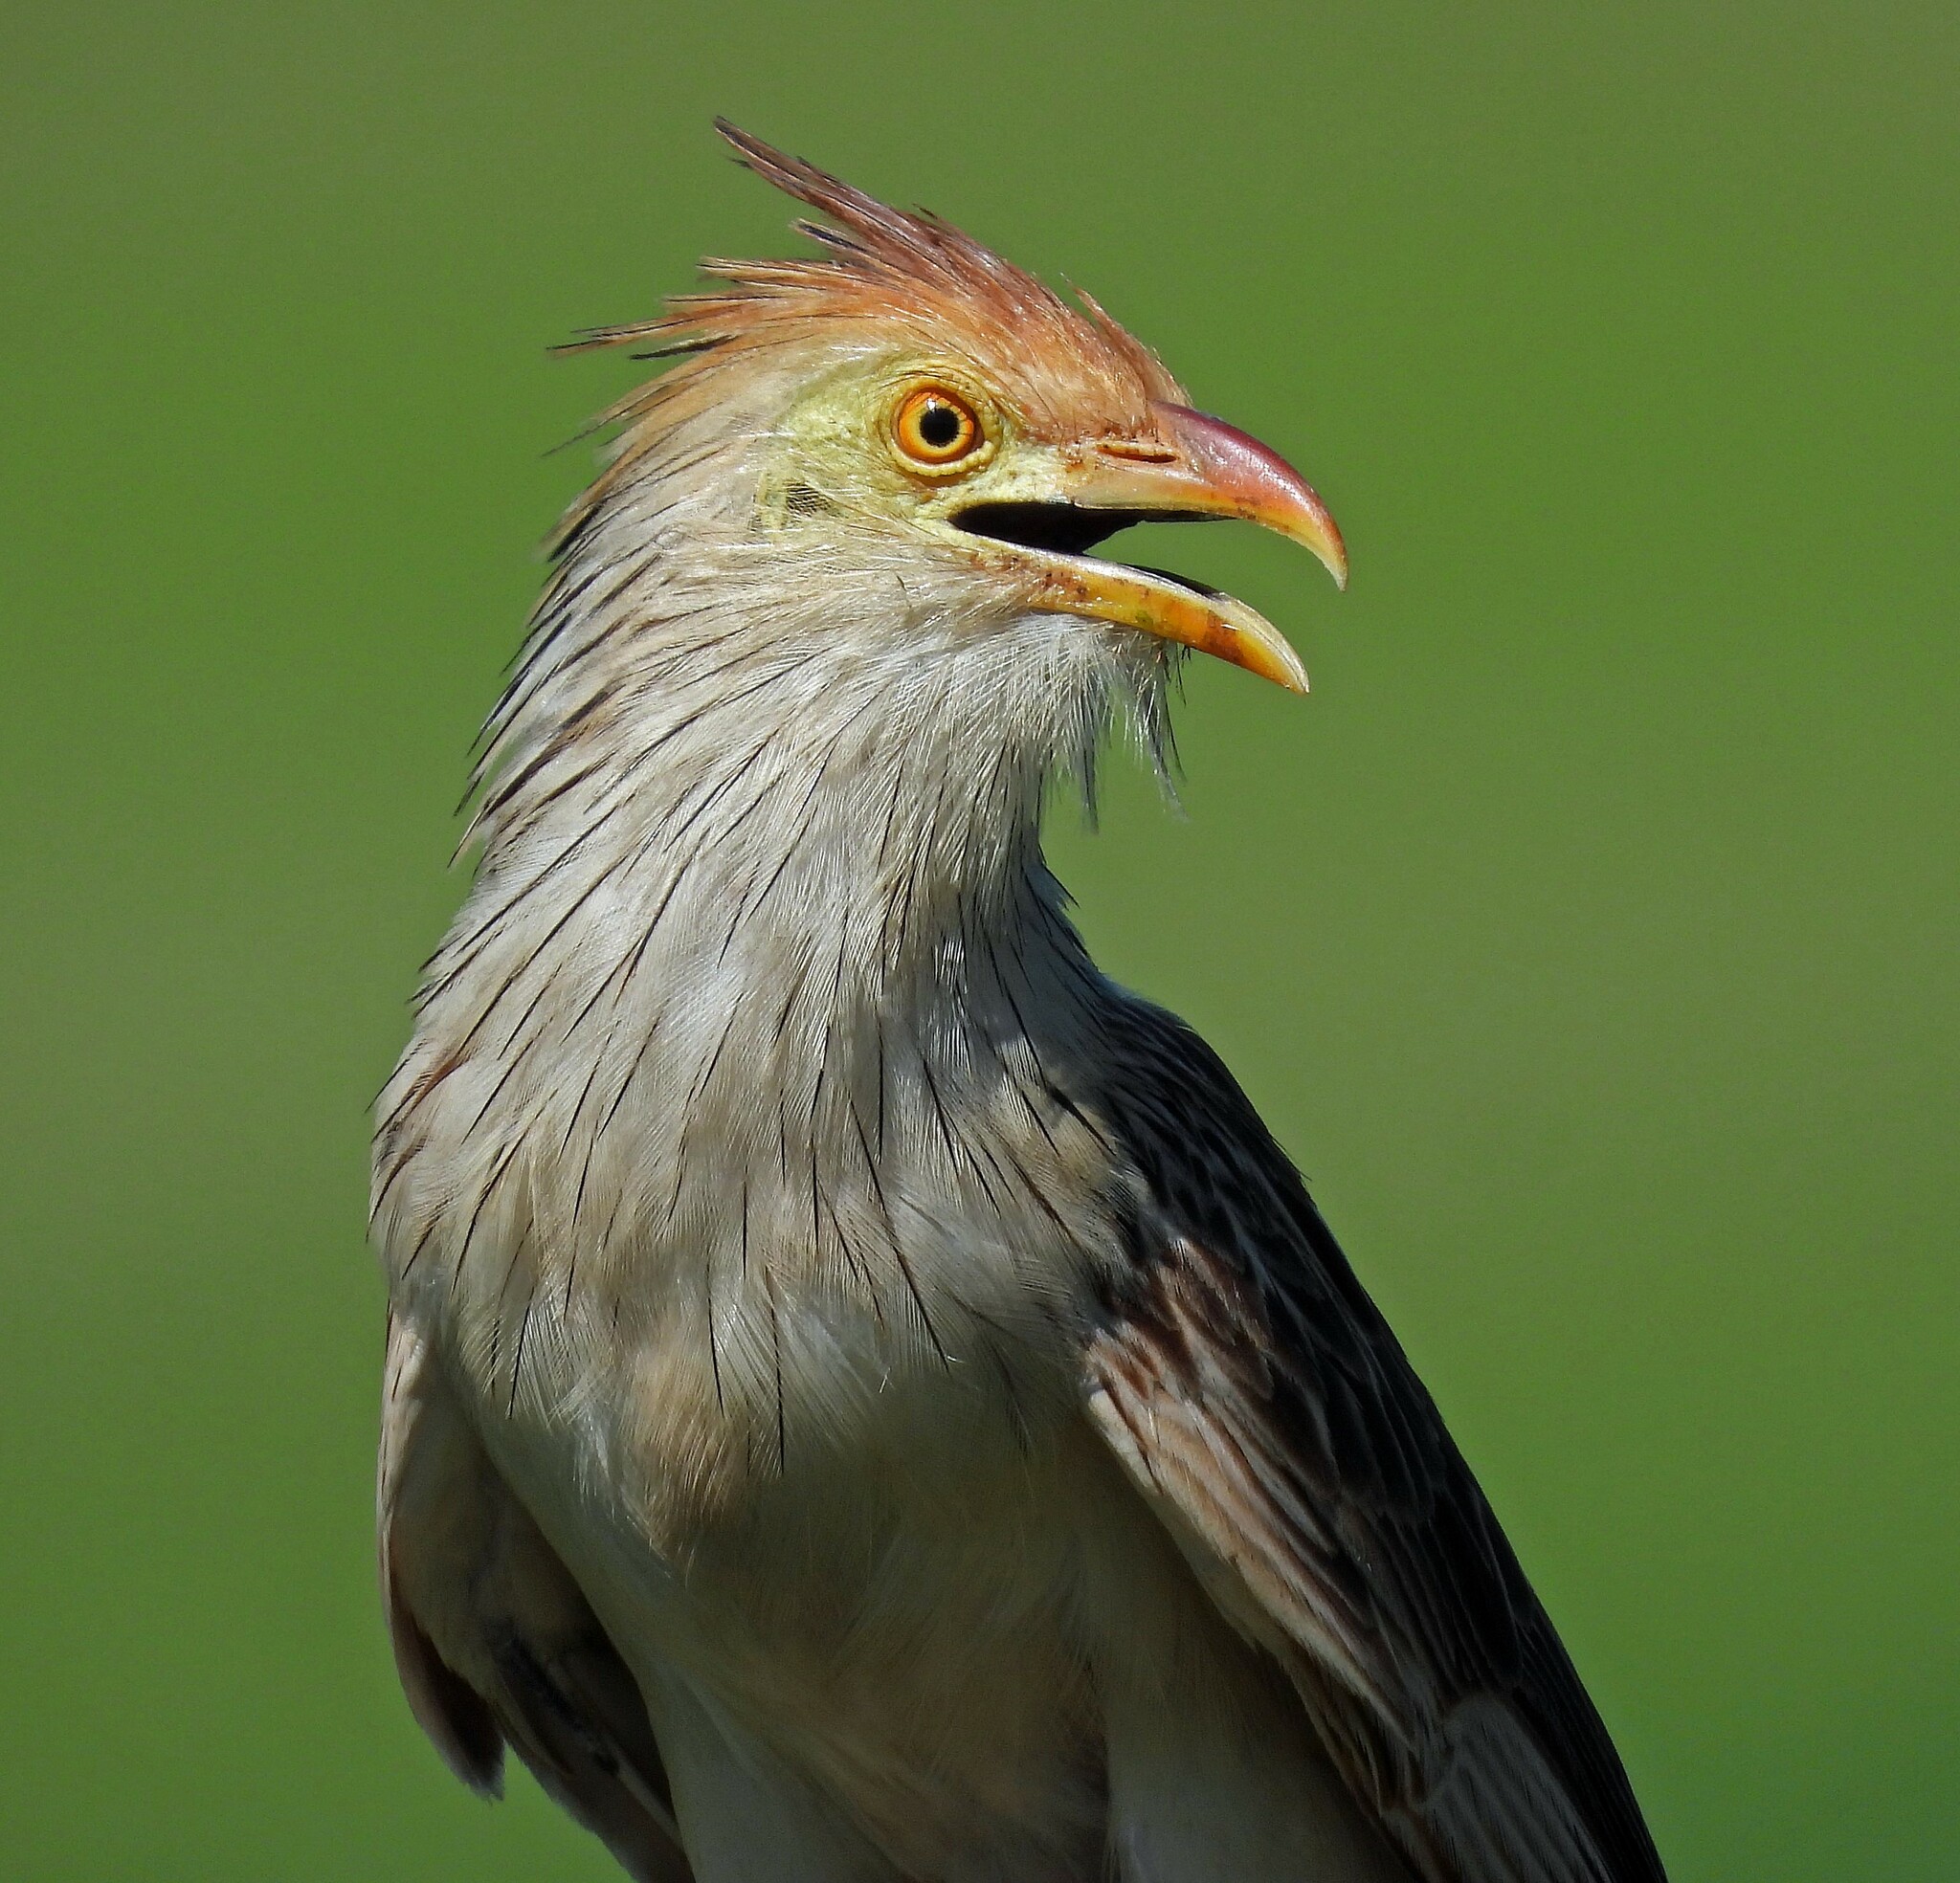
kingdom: Animalia
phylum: Chordata
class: Aves
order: Cuculiformes
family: Cuculidae
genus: Guira
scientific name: Guira guira
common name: Guira cuckoo
